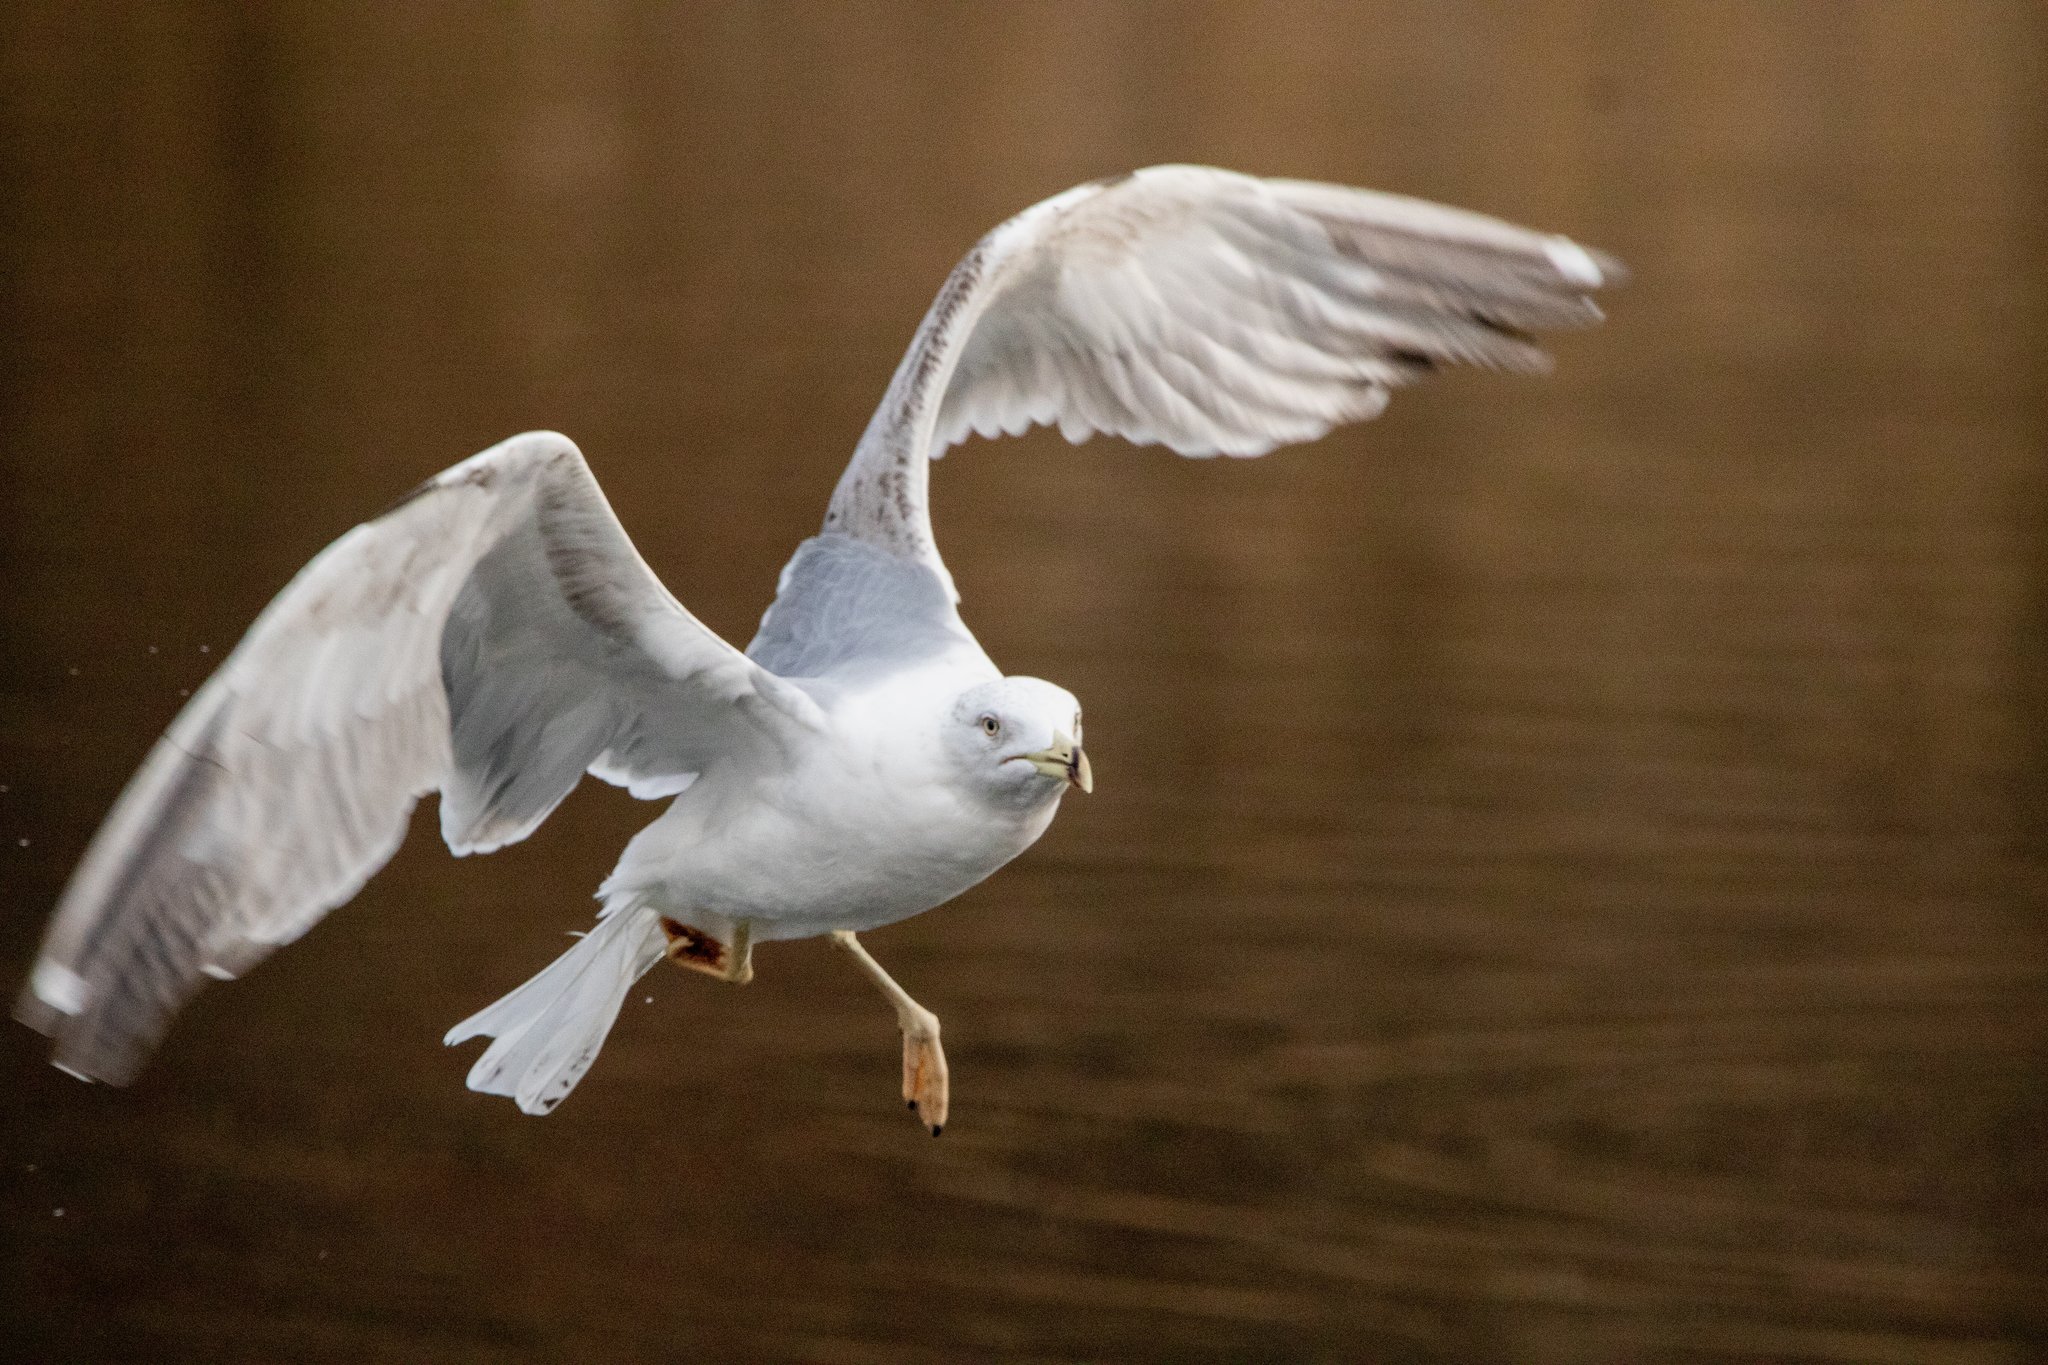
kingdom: Animalia
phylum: Chordata
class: Aves
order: Charadriiformes
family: Laridae
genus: Larus
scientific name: Larus michahellis
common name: Yellow-legged gull
